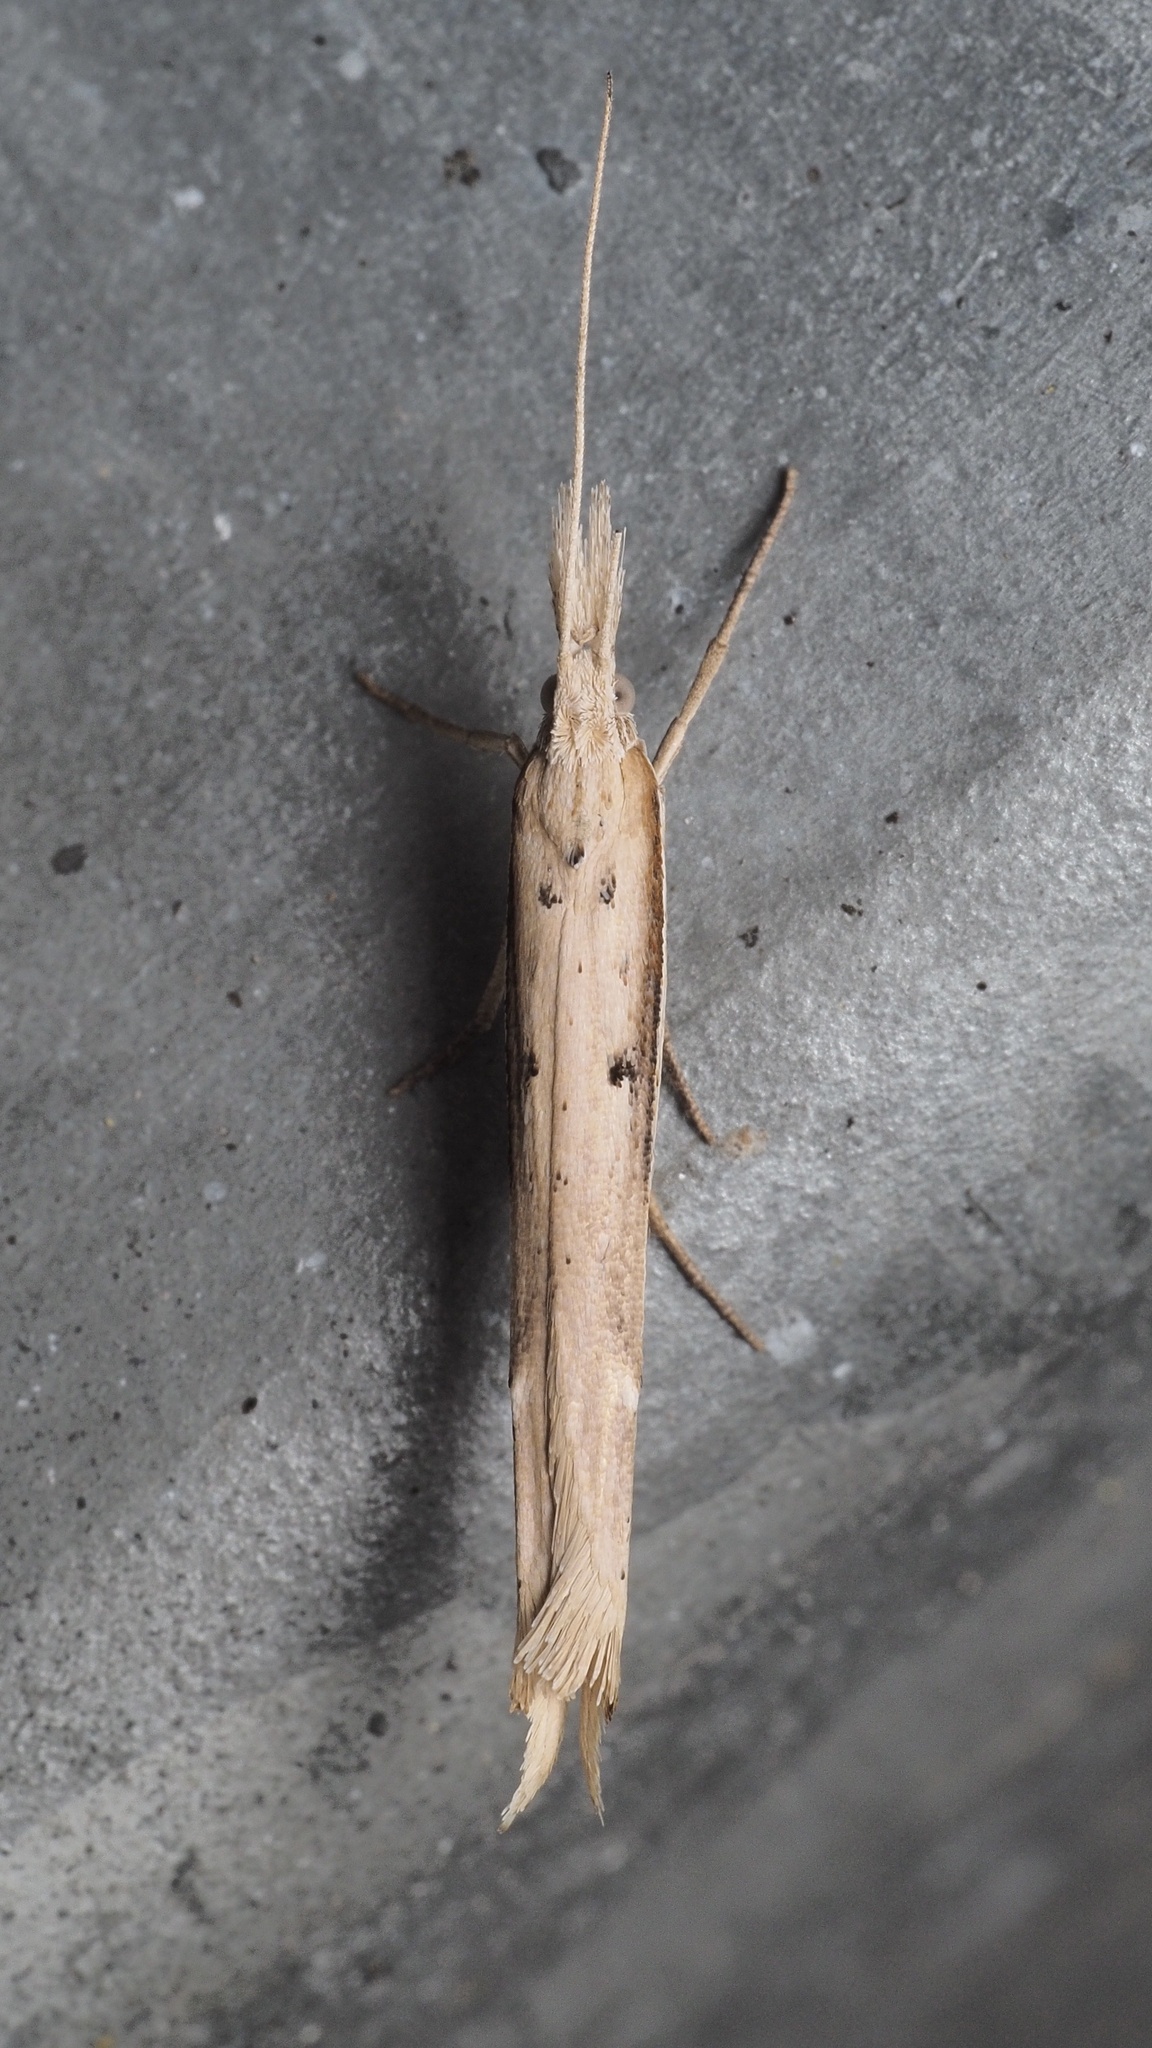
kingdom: Animalia
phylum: Arthropoda
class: Insecta
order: Lepidoptera
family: Ypsolophidae
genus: Ypsolopha
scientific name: Ypsolopha mucronella
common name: Spindle smudge
